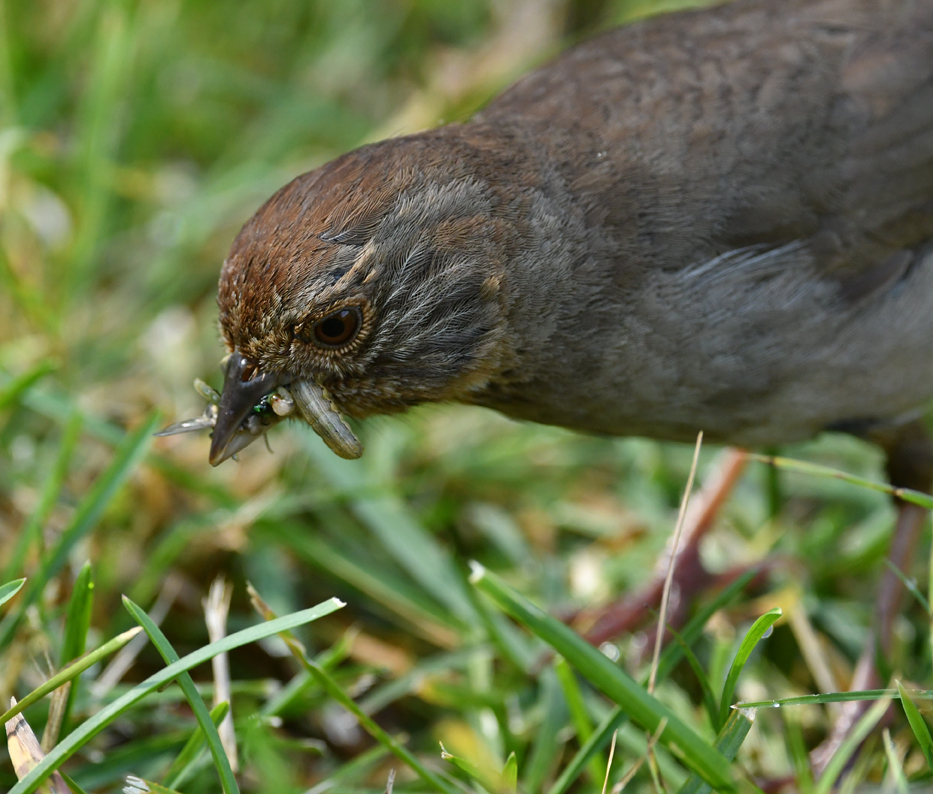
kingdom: Animalia
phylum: Chordata
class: Aves
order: Passeriformes
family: Passerellidae
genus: Melozone
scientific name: Melozone crissalis
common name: California towhee
